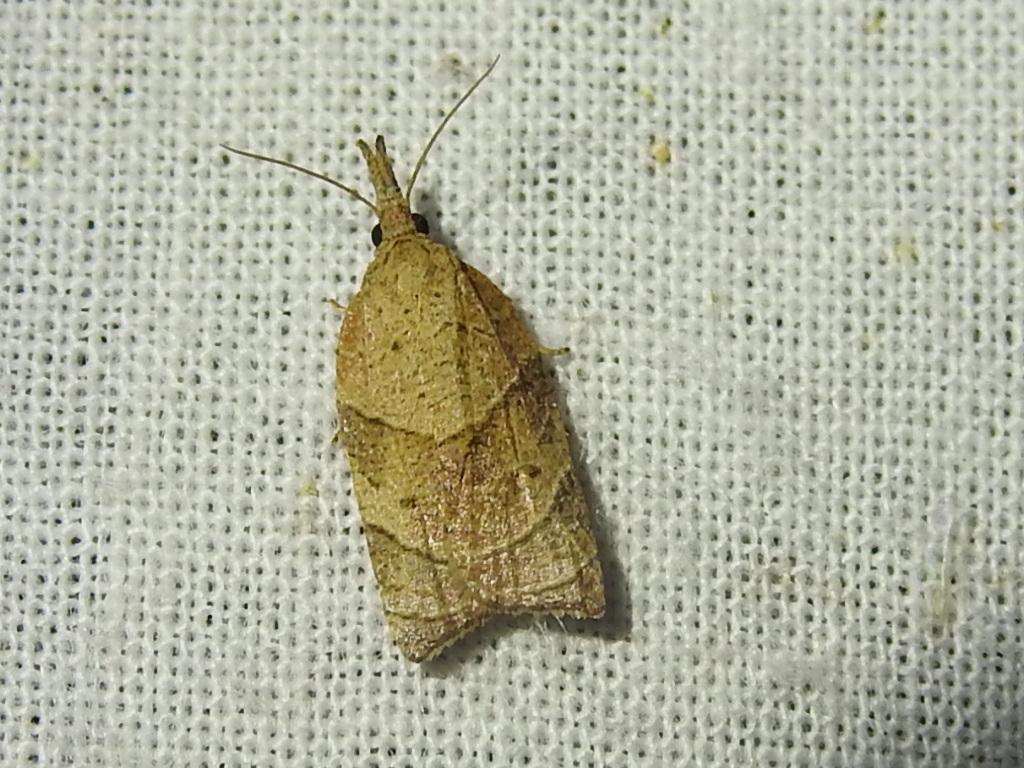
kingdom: Animalia
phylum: Arthropoda
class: Insecta
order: Lepidoptera
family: Tortricidae
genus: Platynota
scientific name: Platynota rostrana
